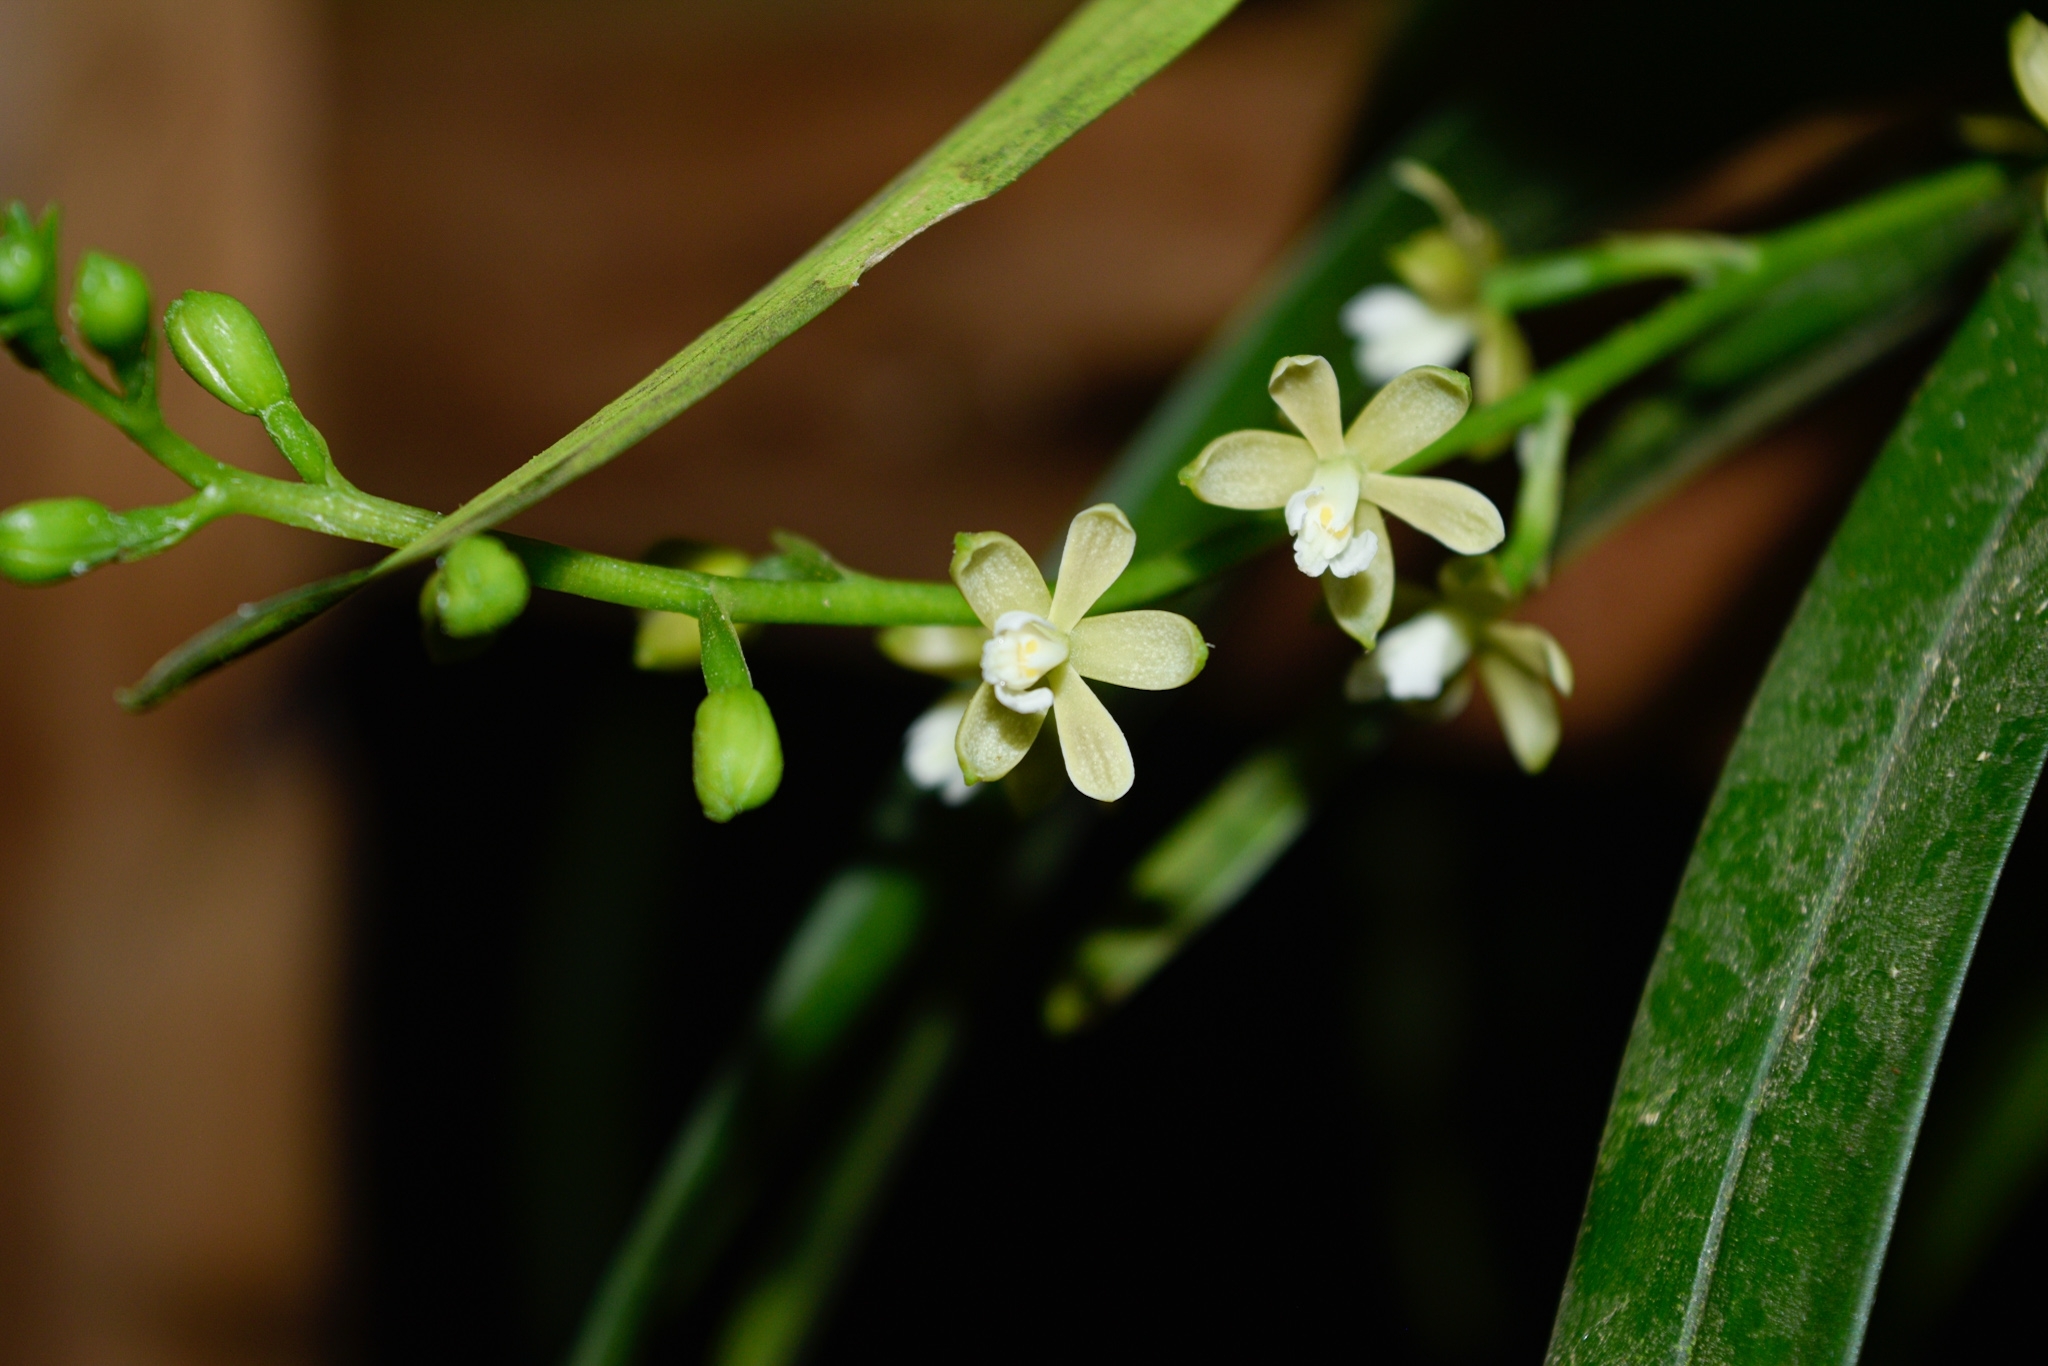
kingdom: Plantae
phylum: Tracheophyta
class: Liliopsida
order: Asparagales
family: Orchidaceae
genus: Prosthechea
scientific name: Prosthechea ochracea
